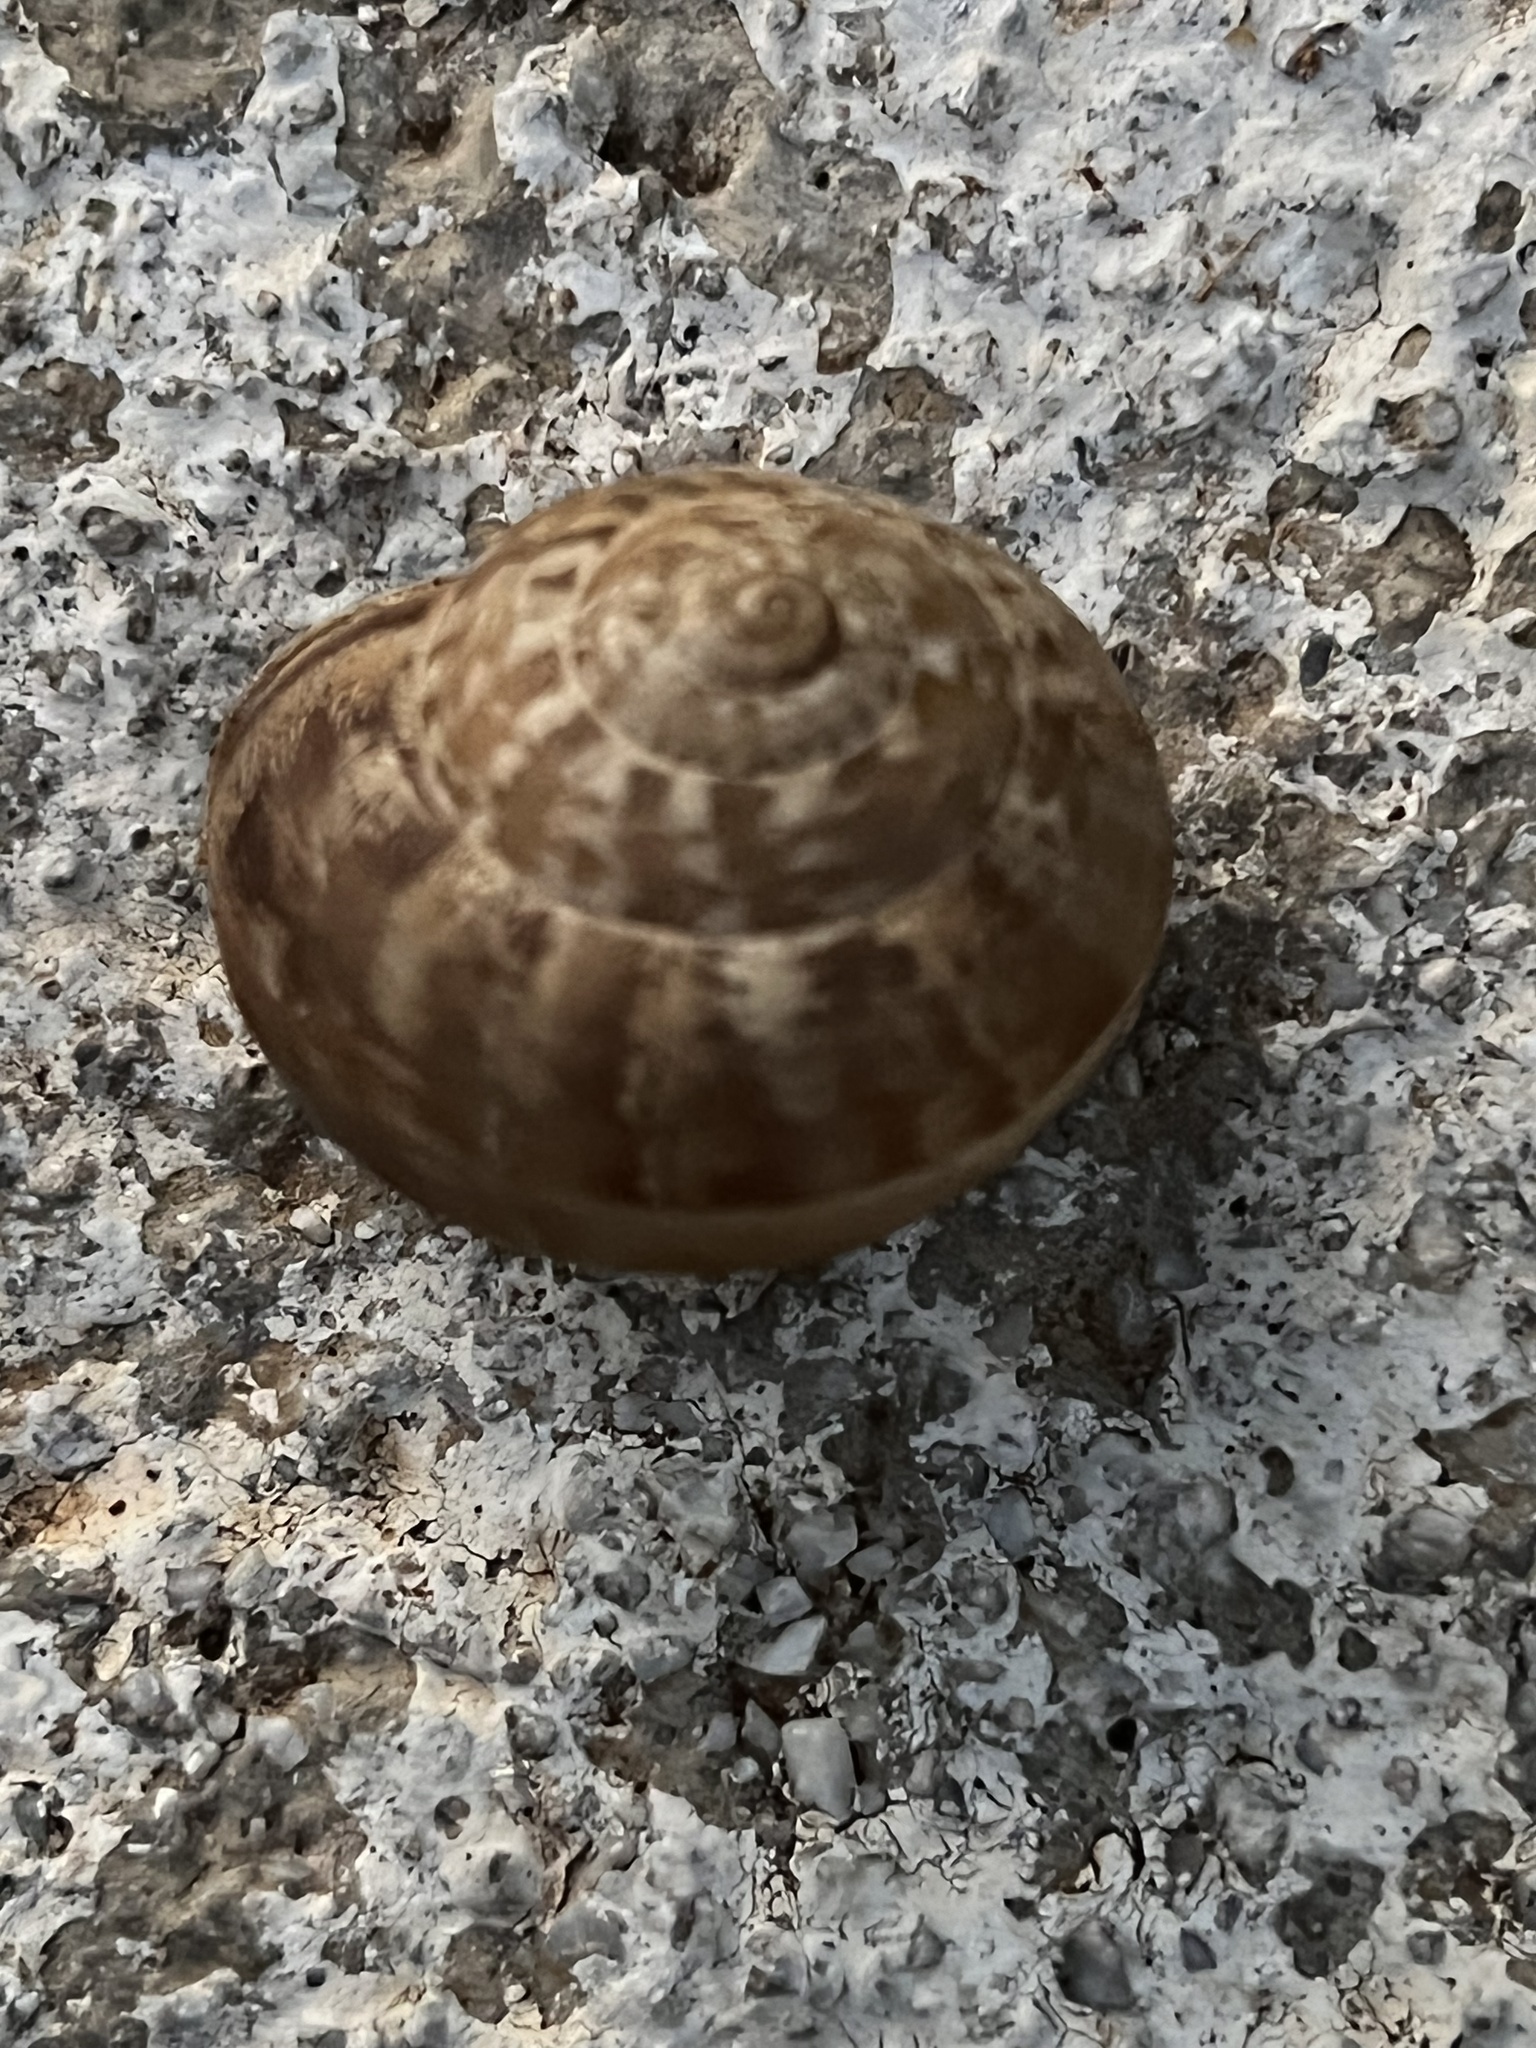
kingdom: Animalia
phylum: Mollusca
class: Gastropoda
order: Stylommatophora
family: Helicidae
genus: Eobania
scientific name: Eobania vermiculata
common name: Chocolateband snail
